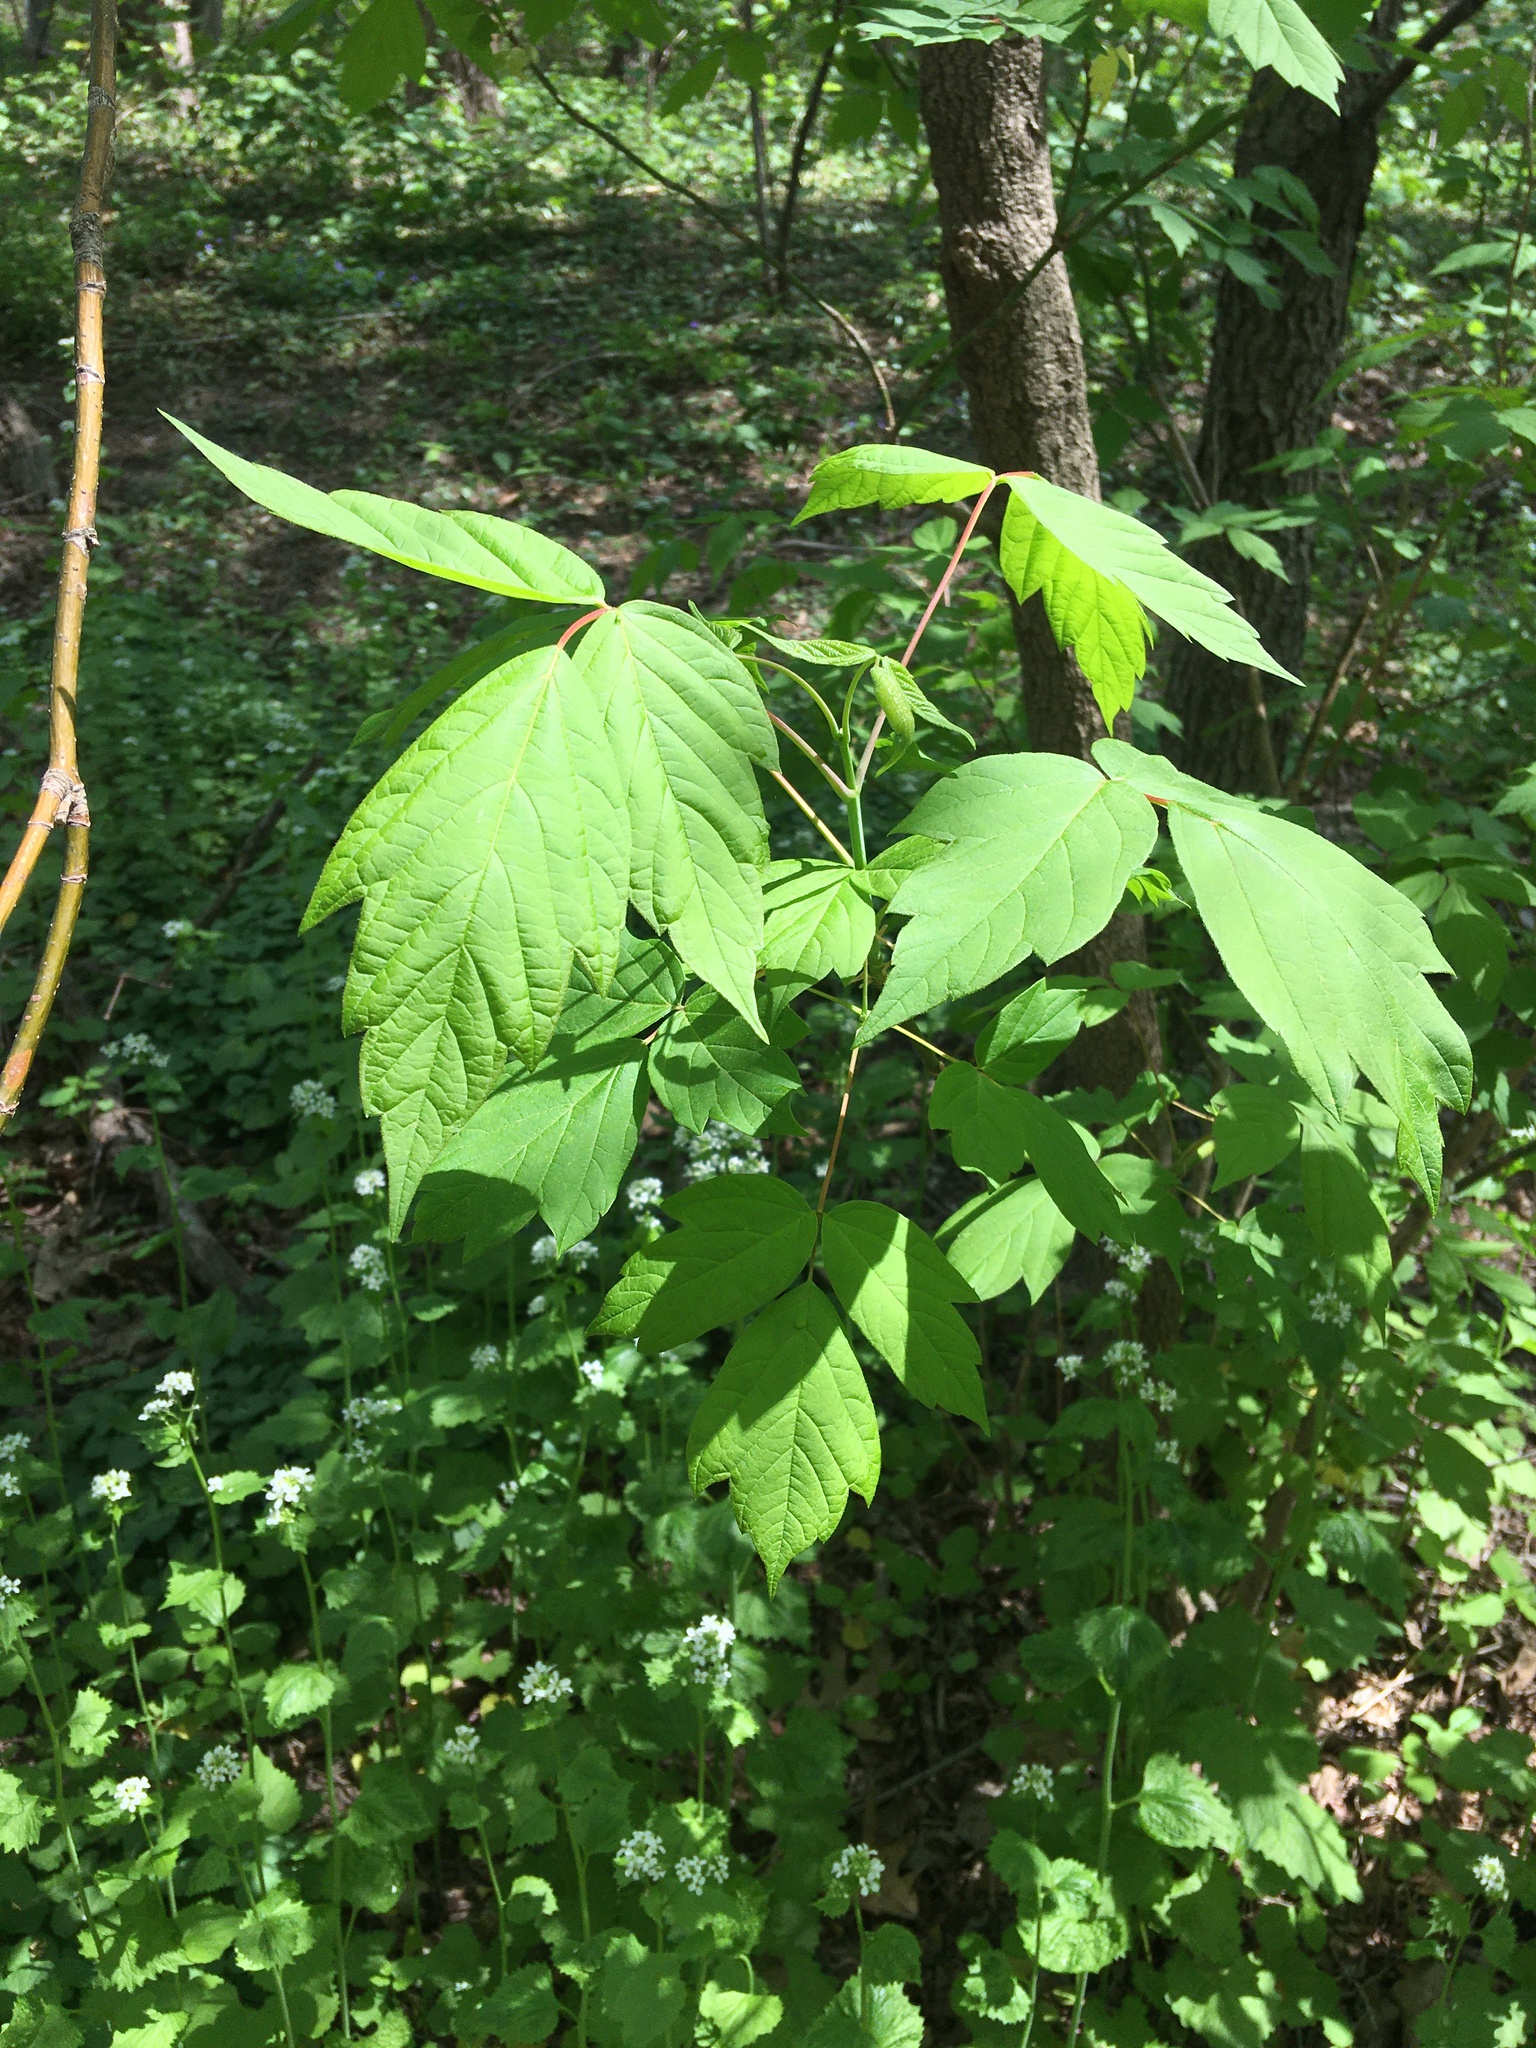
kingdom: Plantae
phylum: Tracheophyta
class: Magnoliopsida
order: Sapindales
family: Sapindaceae
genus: Acer
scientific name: Acer negundo
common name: Ashleaf maple
